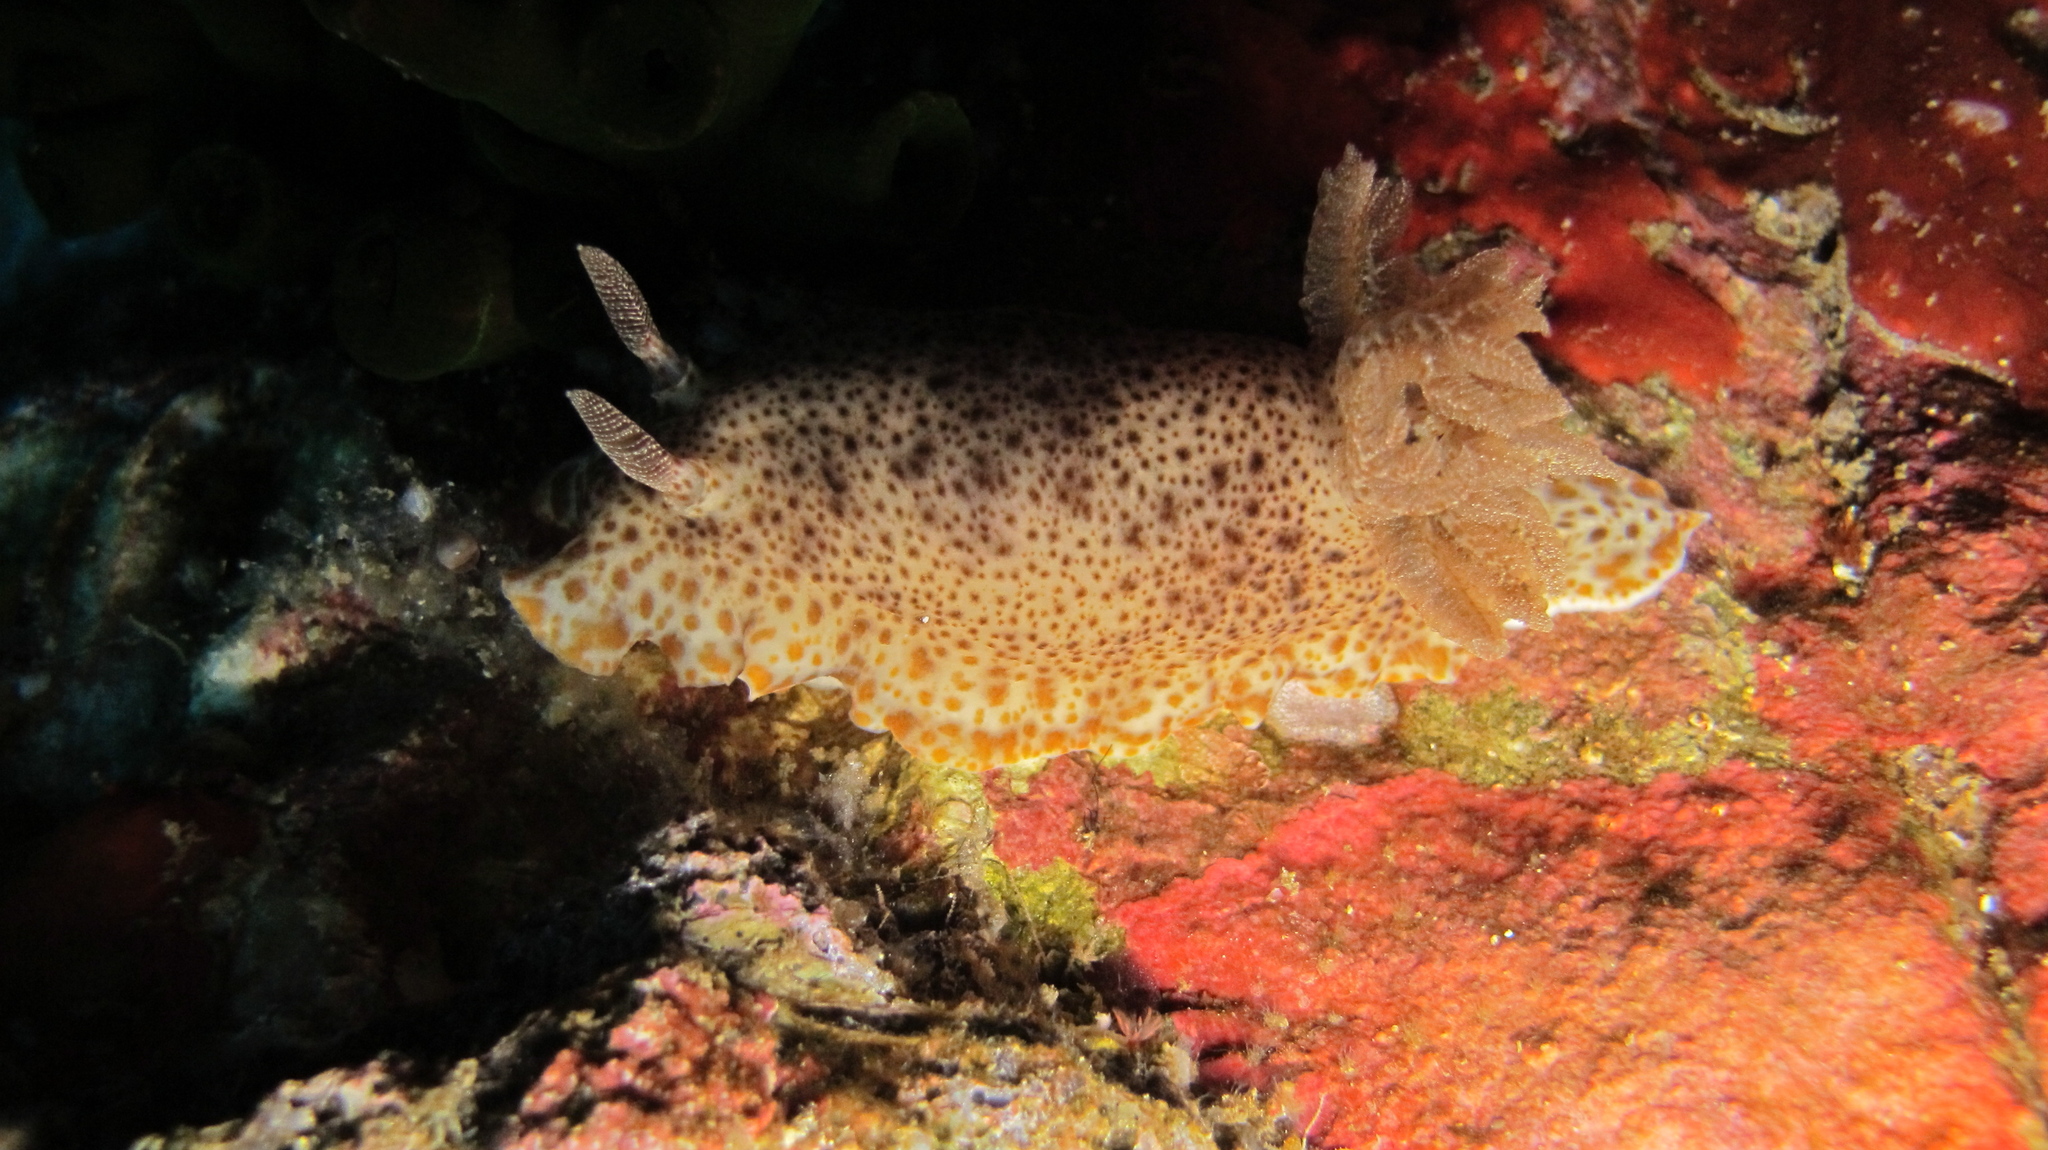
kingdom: Animalia
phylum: Mollusca
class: Gastropoda
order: Nudibranchia
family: Chromodorididae
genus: Chromodoris
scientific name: Chromodoris mandapamensis
